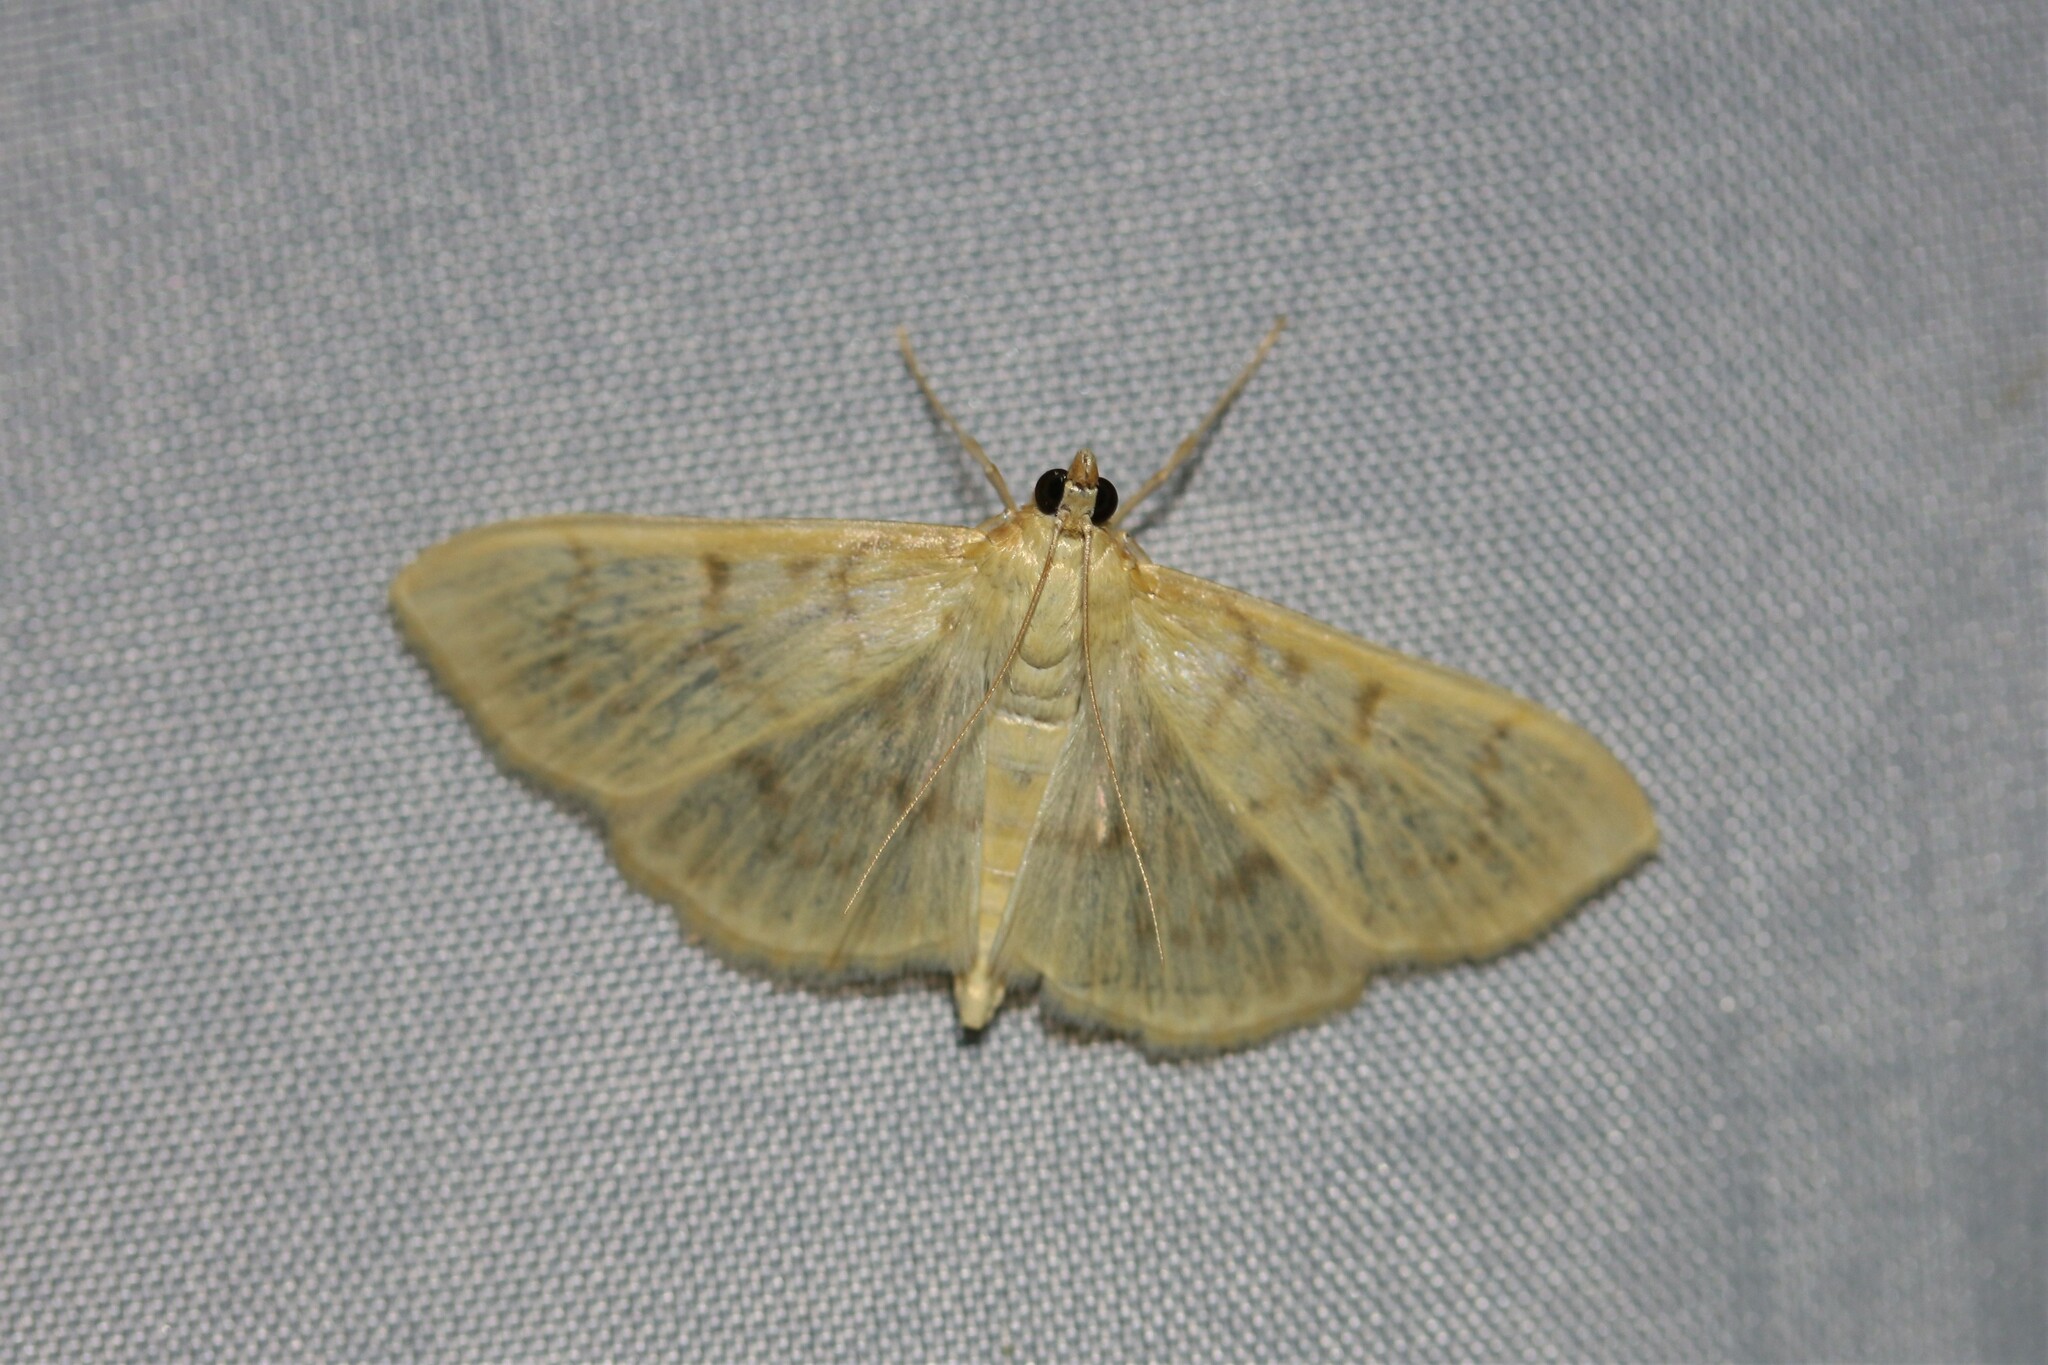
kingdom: Animalia
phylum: Arthropoda
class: Insecta
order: Lepidoptera
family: Crambidae
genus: Patania
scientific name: Patania ruralis
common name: Mother of pearl
